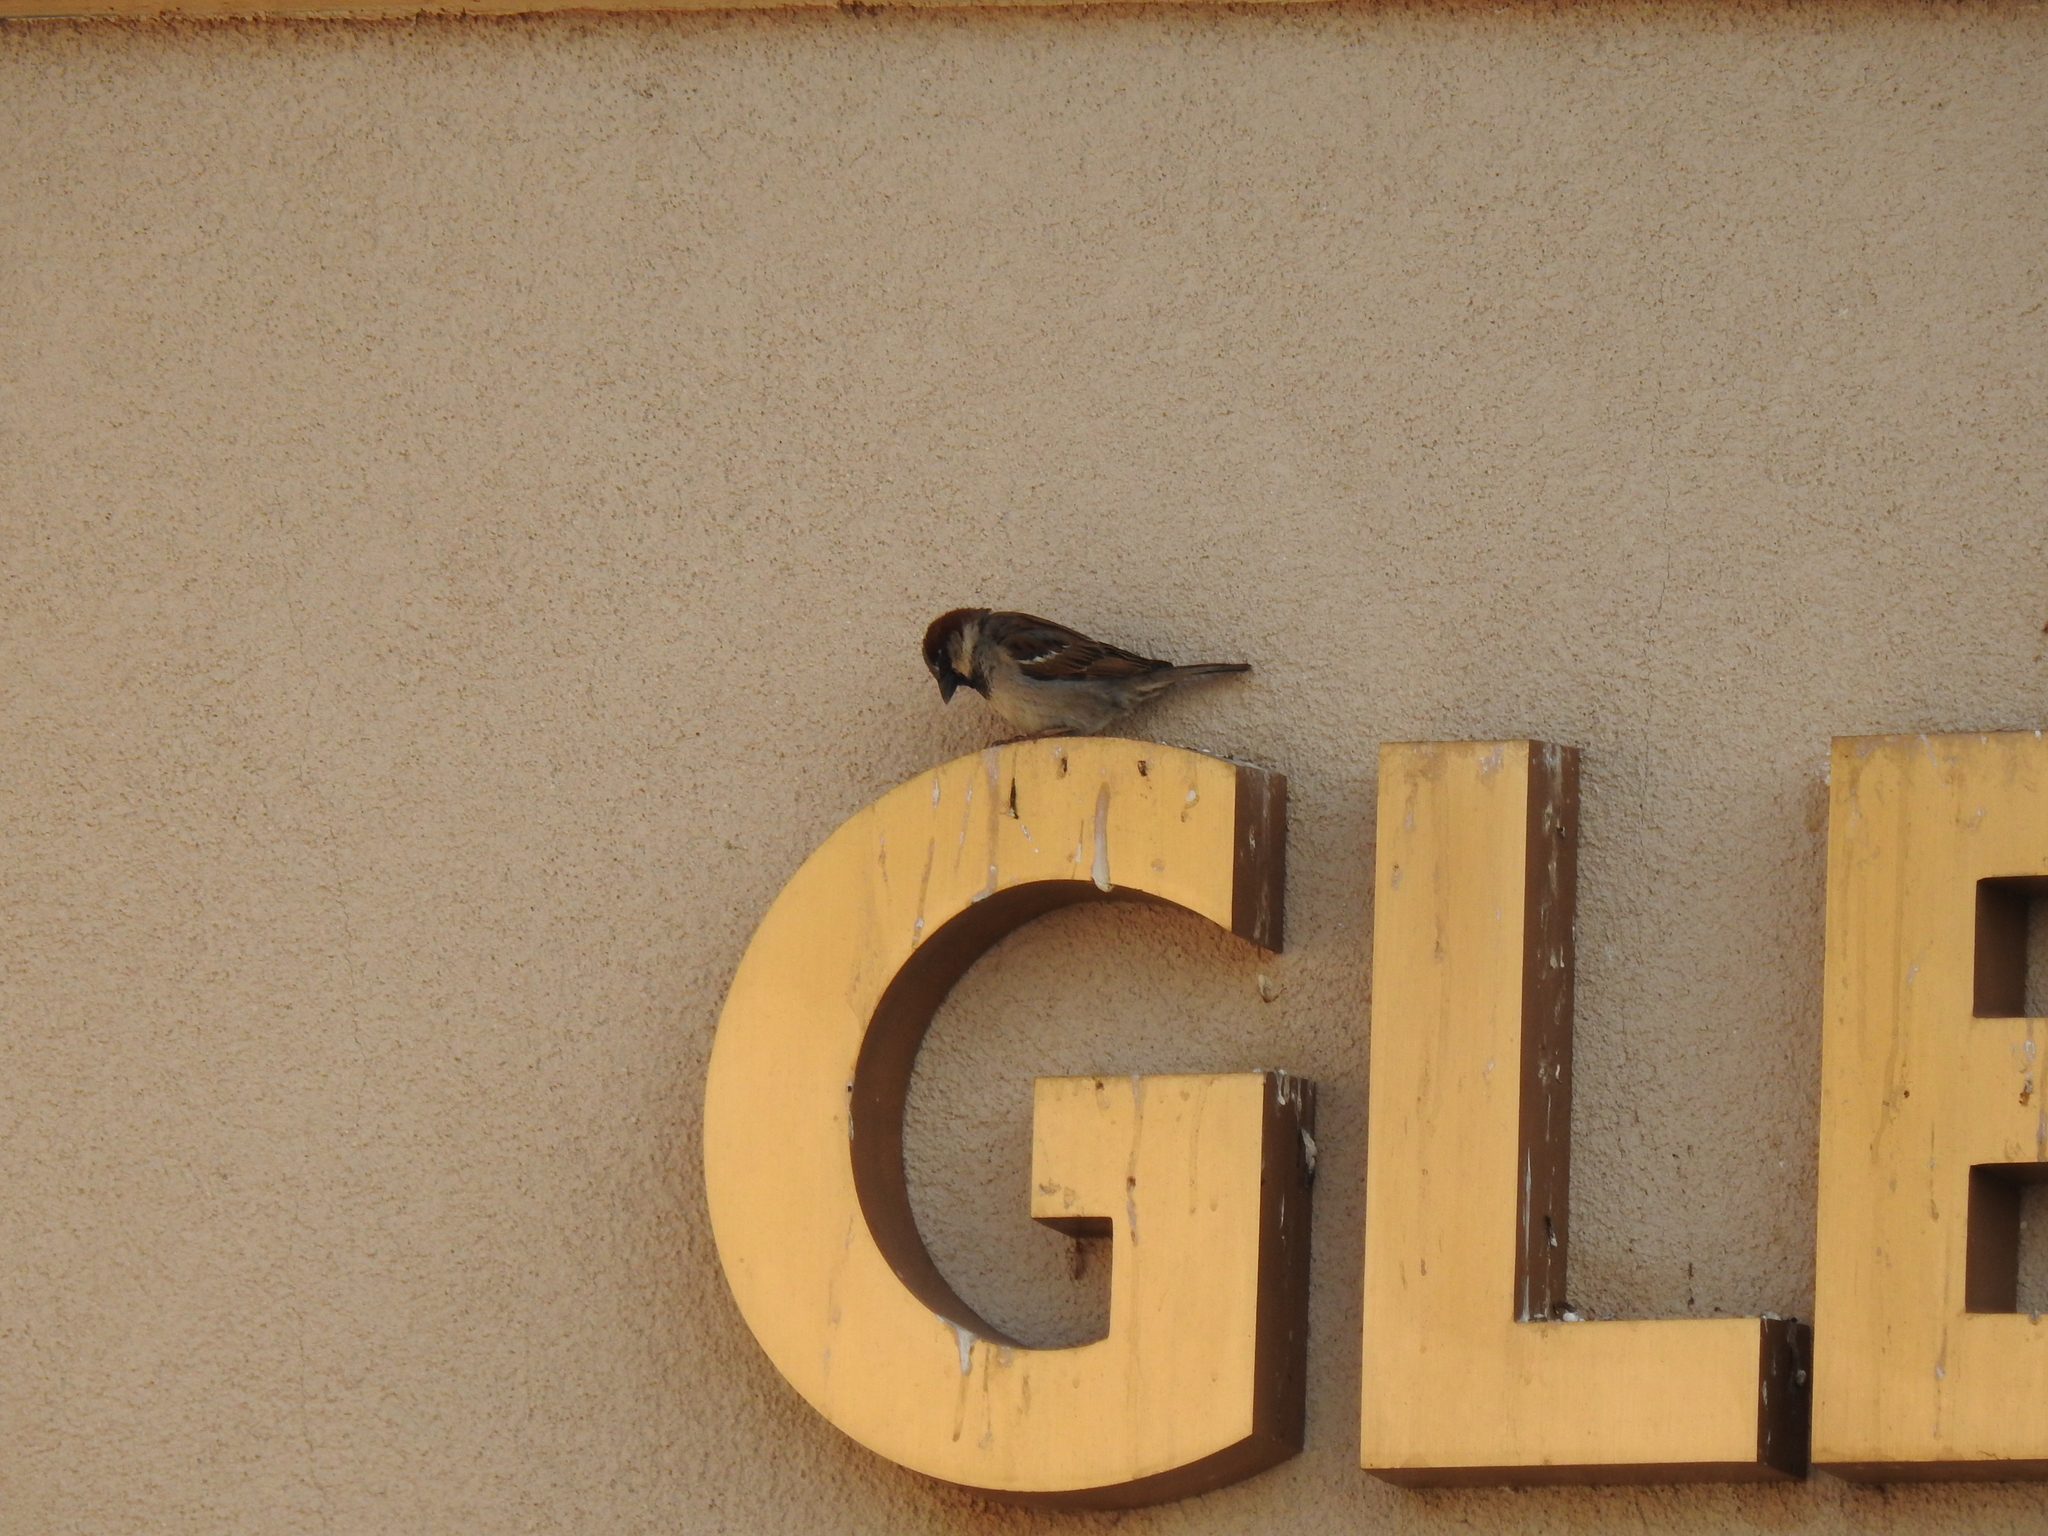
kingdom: Animalia
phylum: Chordata
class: Aves
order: Passeriformes
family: Passeridae
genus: Passer
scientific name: Passer domesticus
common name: House sparrow
